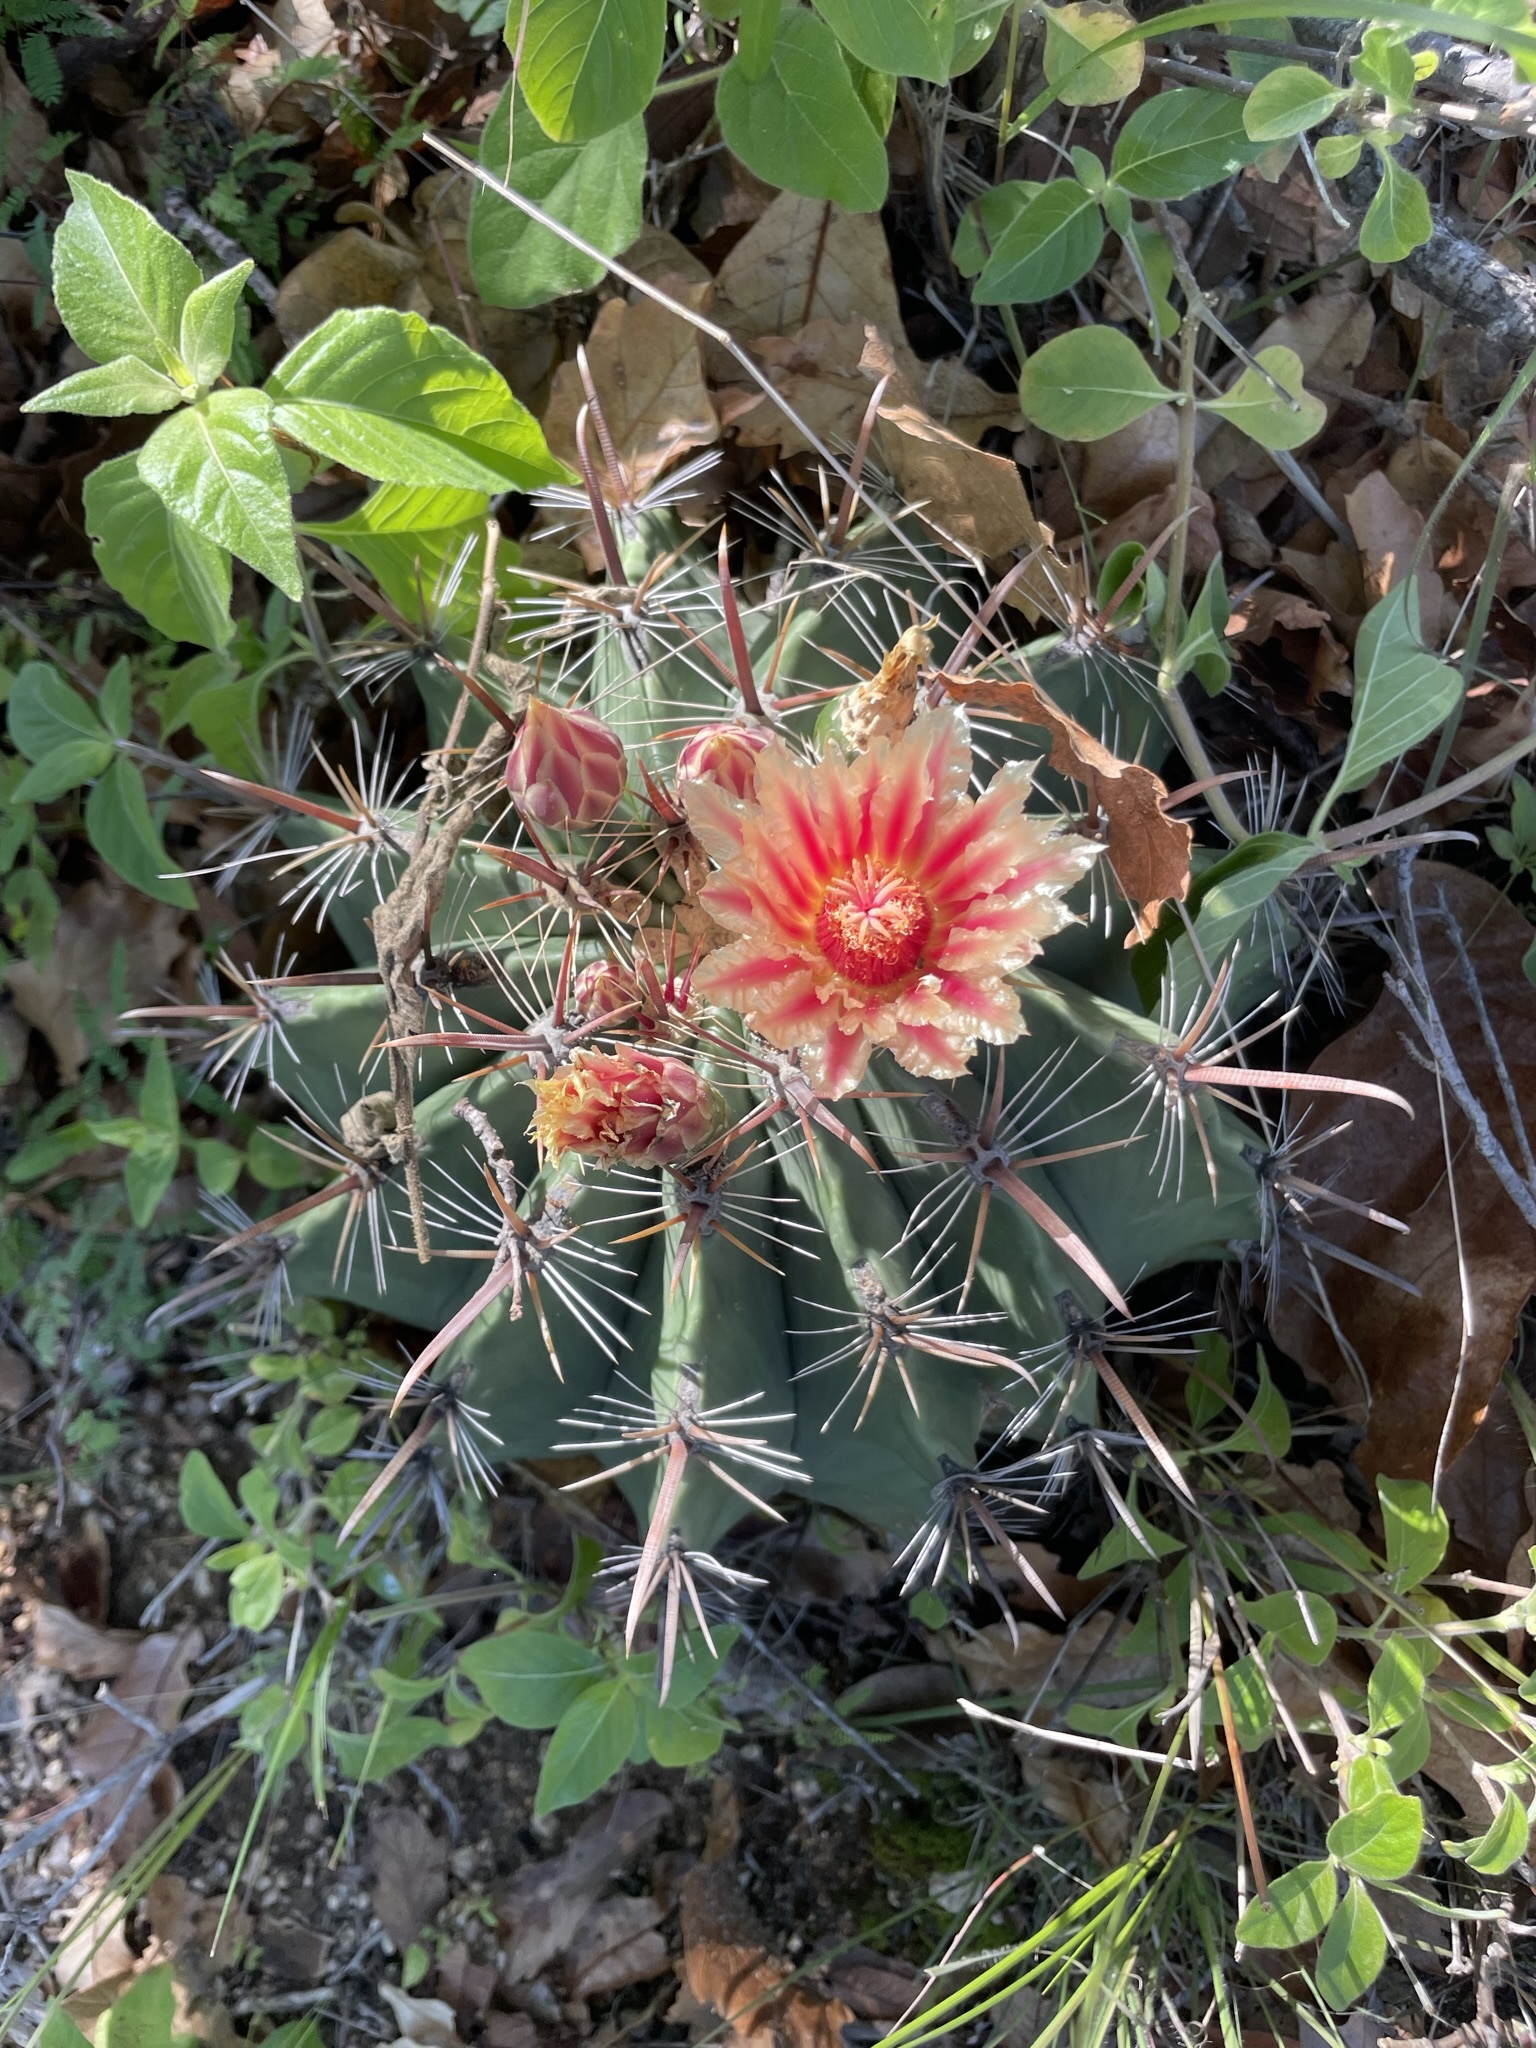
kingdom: Plantae
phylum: Tracheophyta
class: Magnoliopsida
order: Caryophyllales
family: Cactaceae
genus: Ferocactus
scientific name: Ferocactus townsendianus
